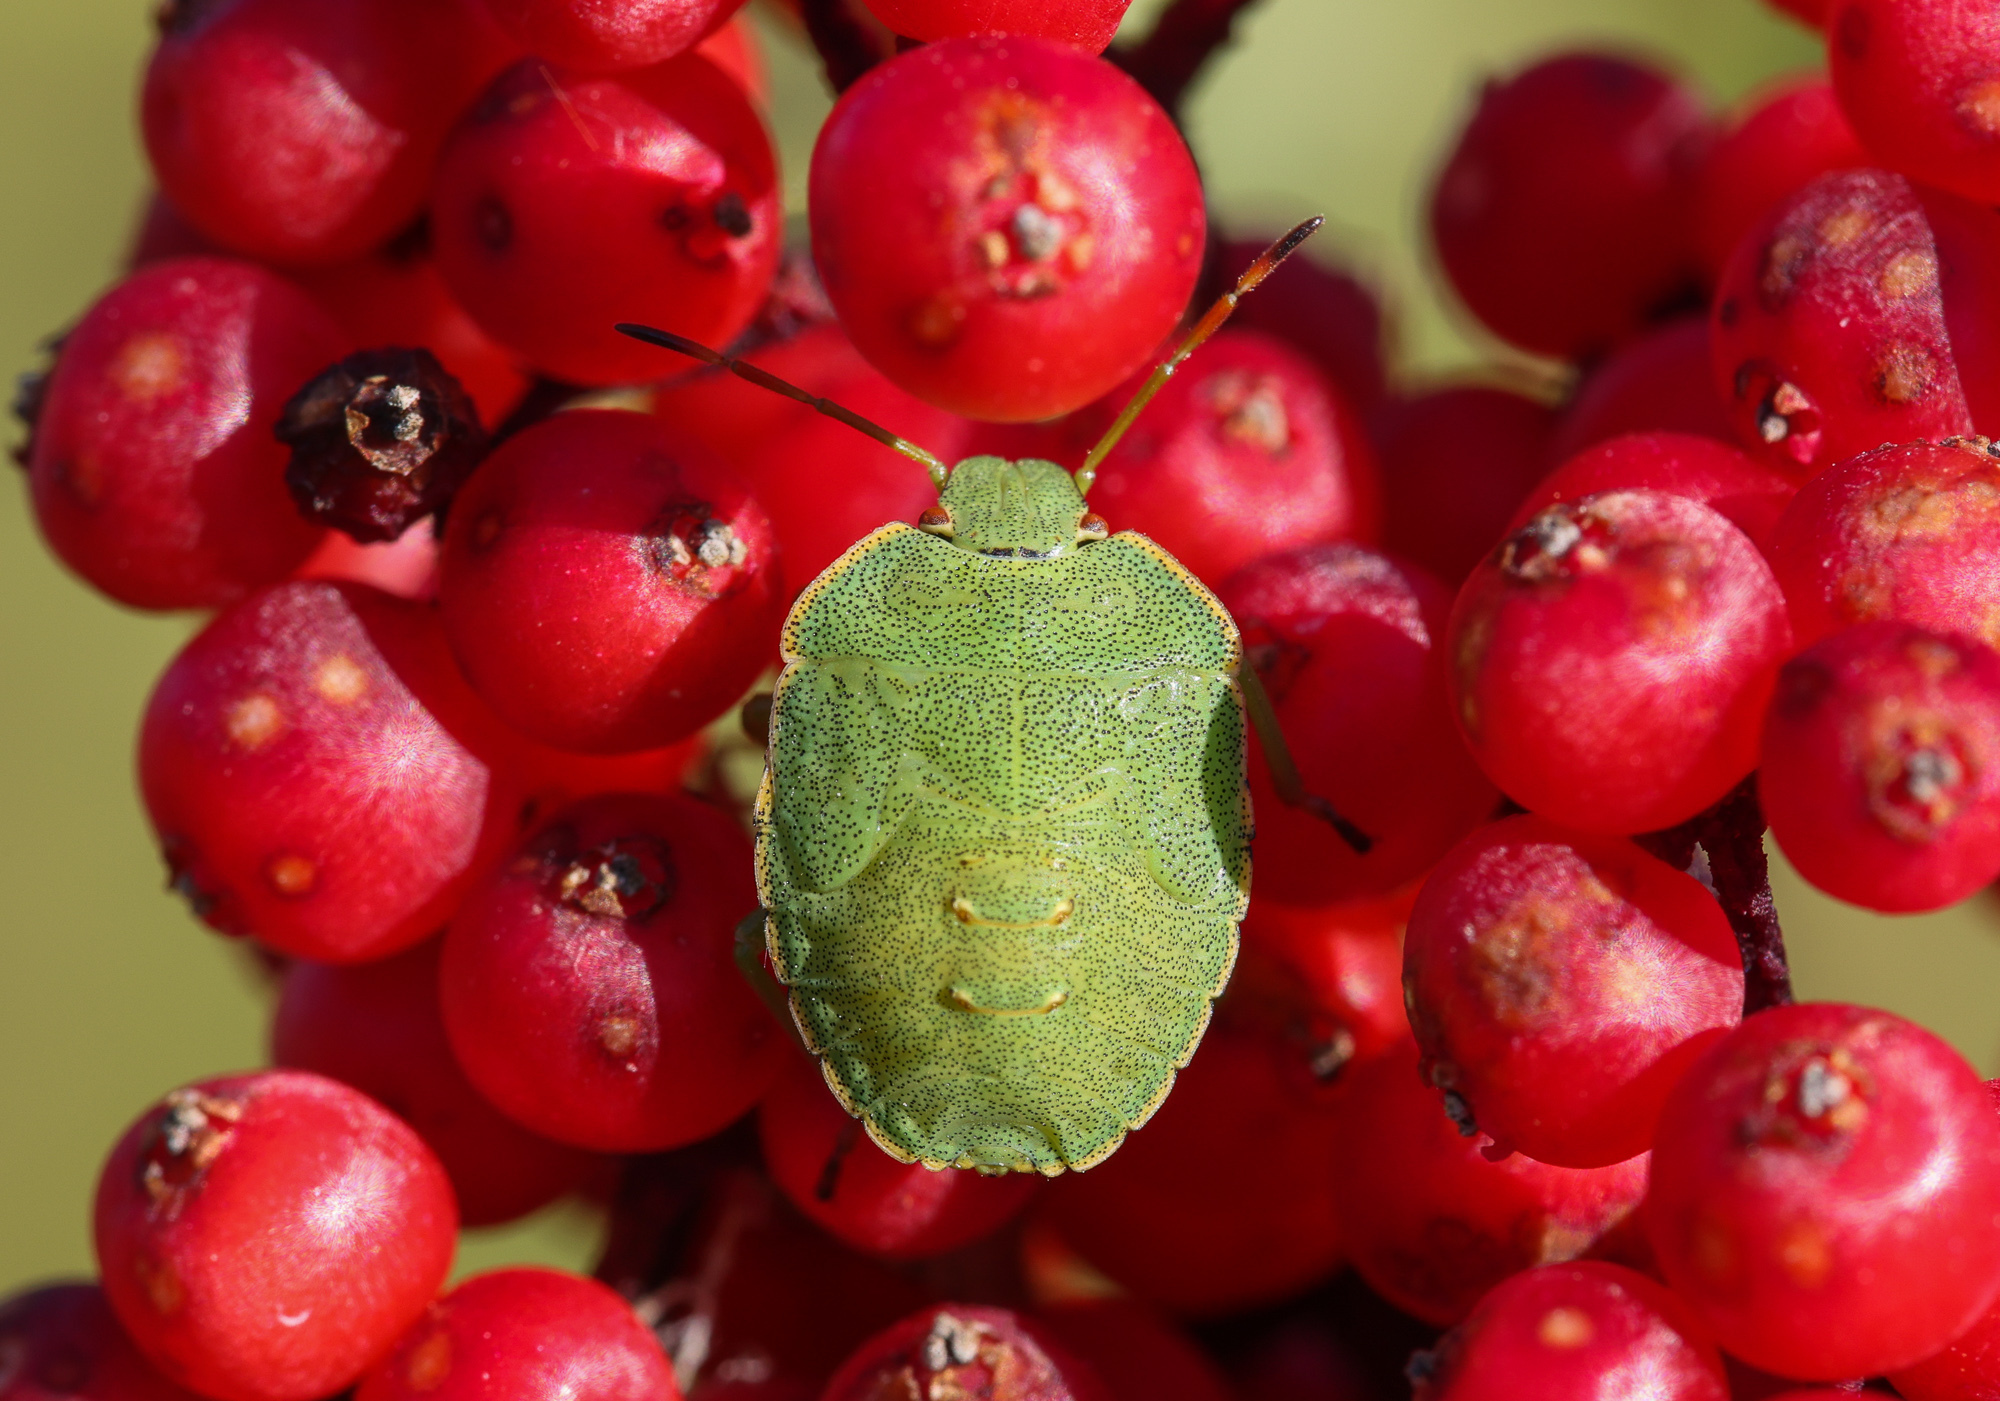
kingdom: Animalia
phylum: Arthropoda
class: Insecta
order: Hemiptera
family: Pentatomidae
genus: Palomena
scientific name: Palomena prasina
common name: Green shieldbug
